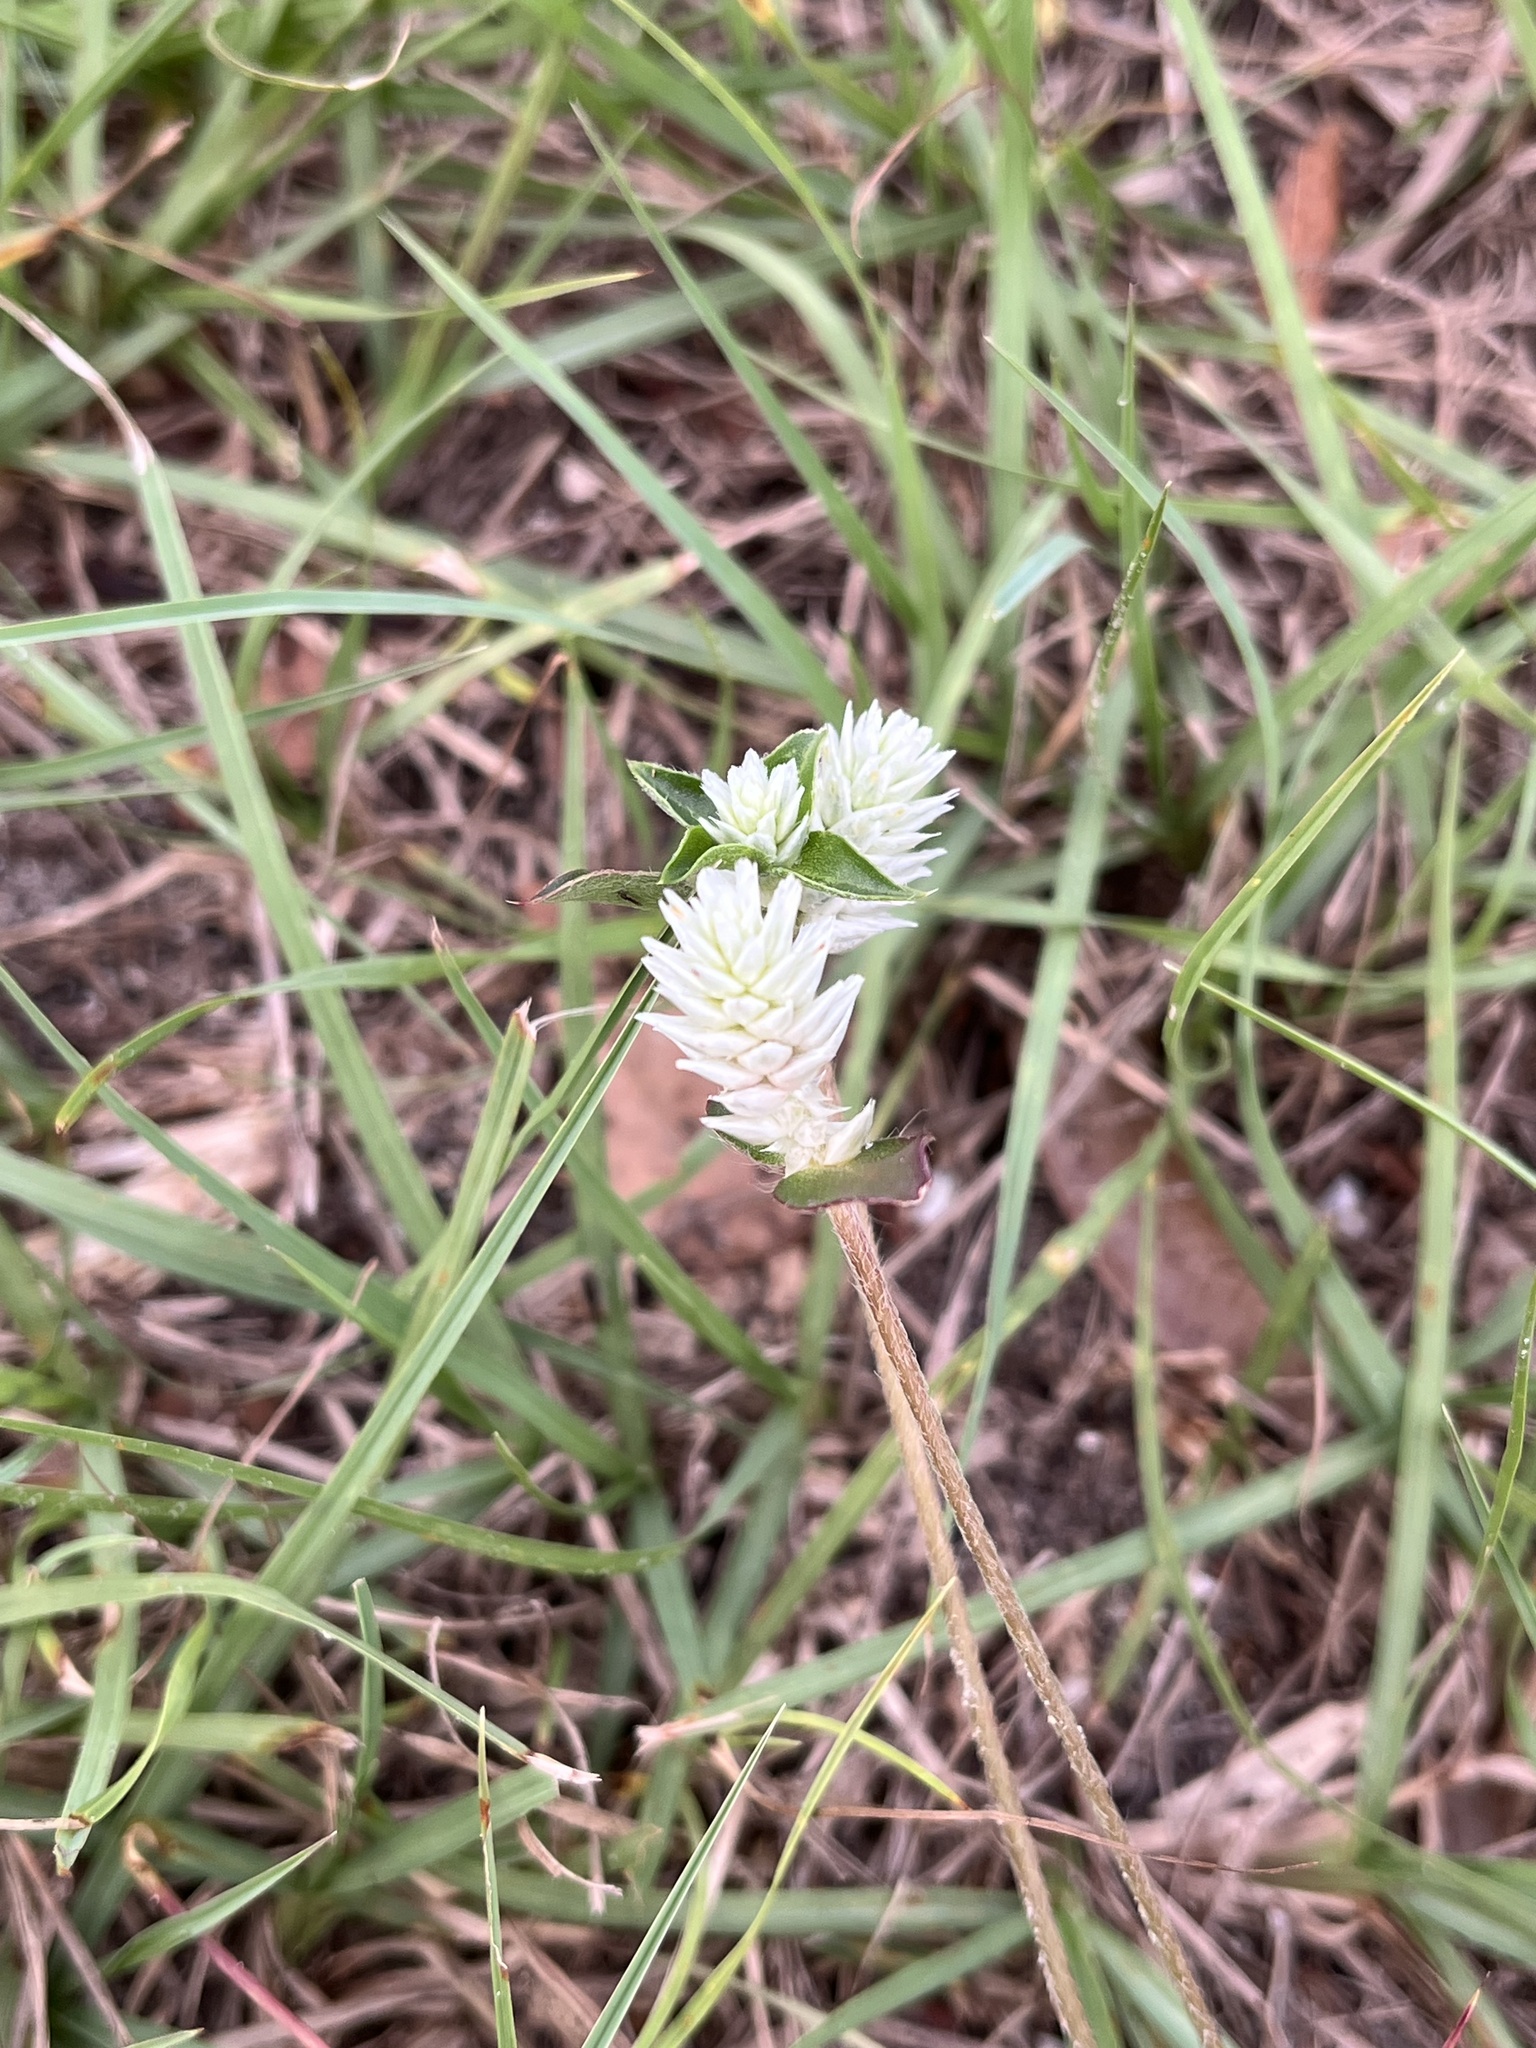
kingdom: Plantae
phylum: Tracheophyta
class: Magnoliopsida
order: Caryophyllales
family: Amaranthaceae
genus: Gomphrena
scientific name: Gomphrena serrata
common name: Arrasa con todo
